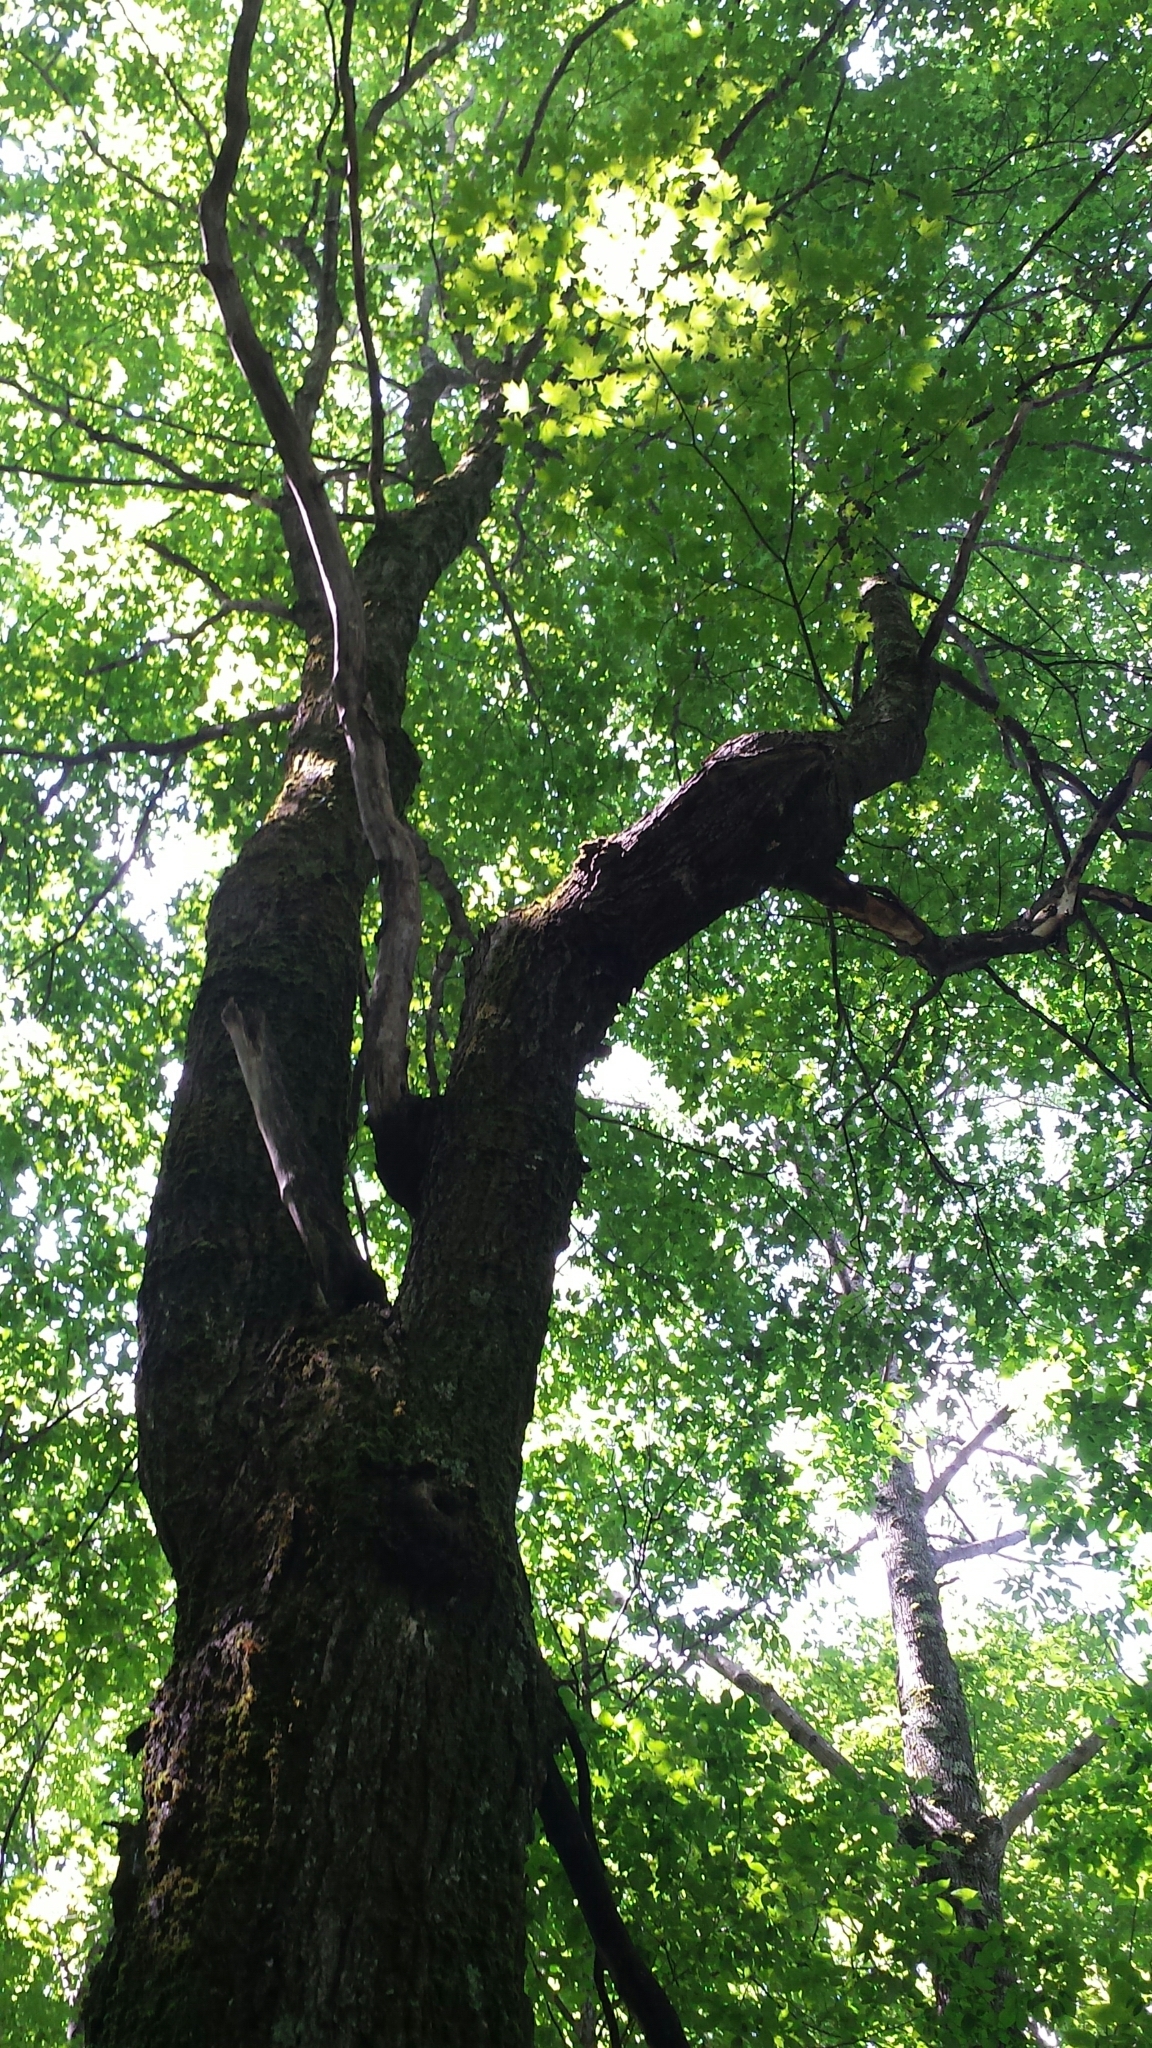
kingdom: Plantae
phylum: Tracheophyta
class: Magnoliopsida
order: Sapindales
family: Sapindaceae
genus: Acer
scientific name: Acer saccharum
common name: Sugar maple
